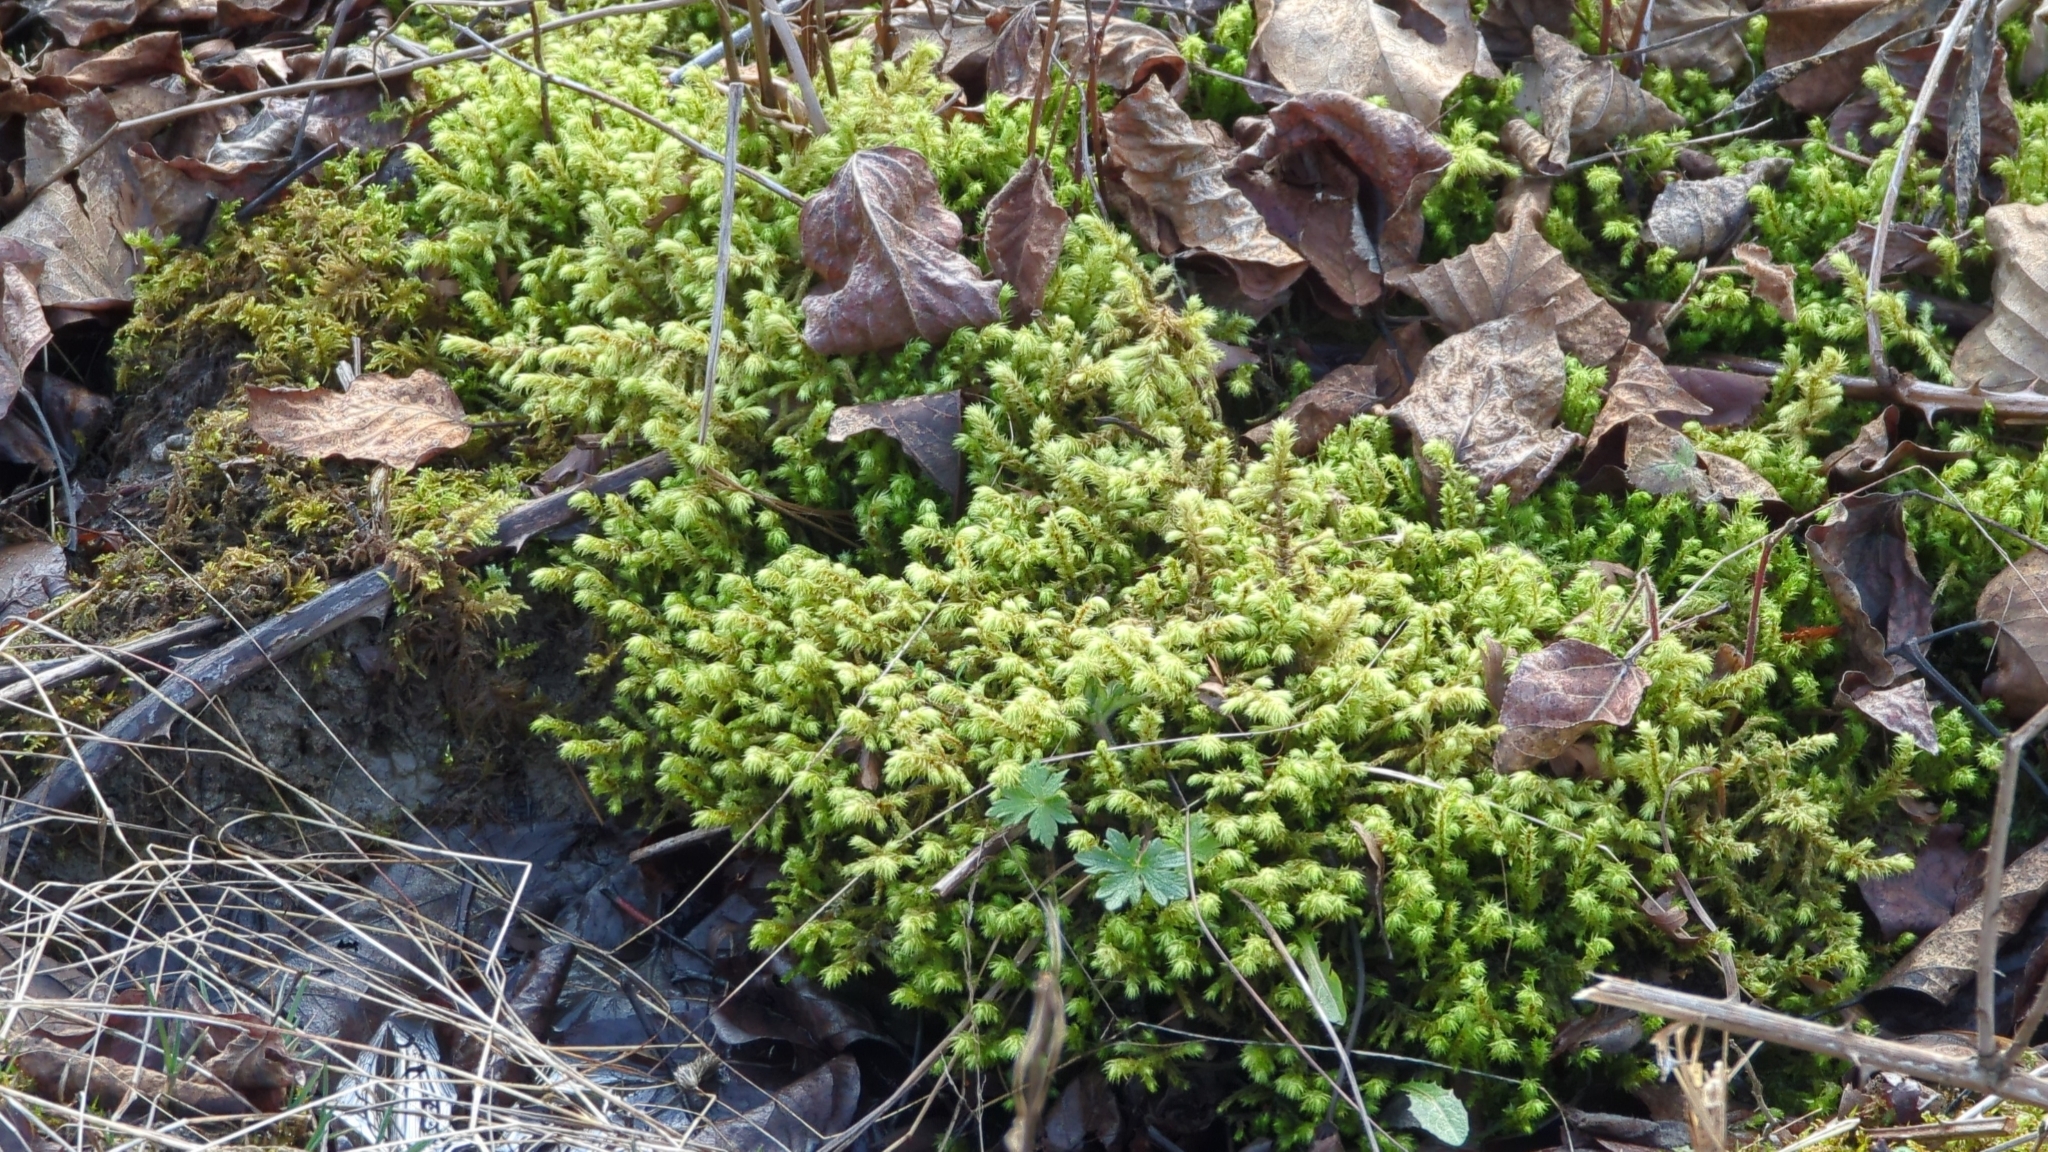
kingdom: Plantae
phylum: Bryophyta
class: Bryopsida
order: Hypnales
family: Hylocomiaceae
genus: Hylocomiadelphus
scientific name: Hylocomiadelphus triquetrus
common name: Rough goose neck moss
